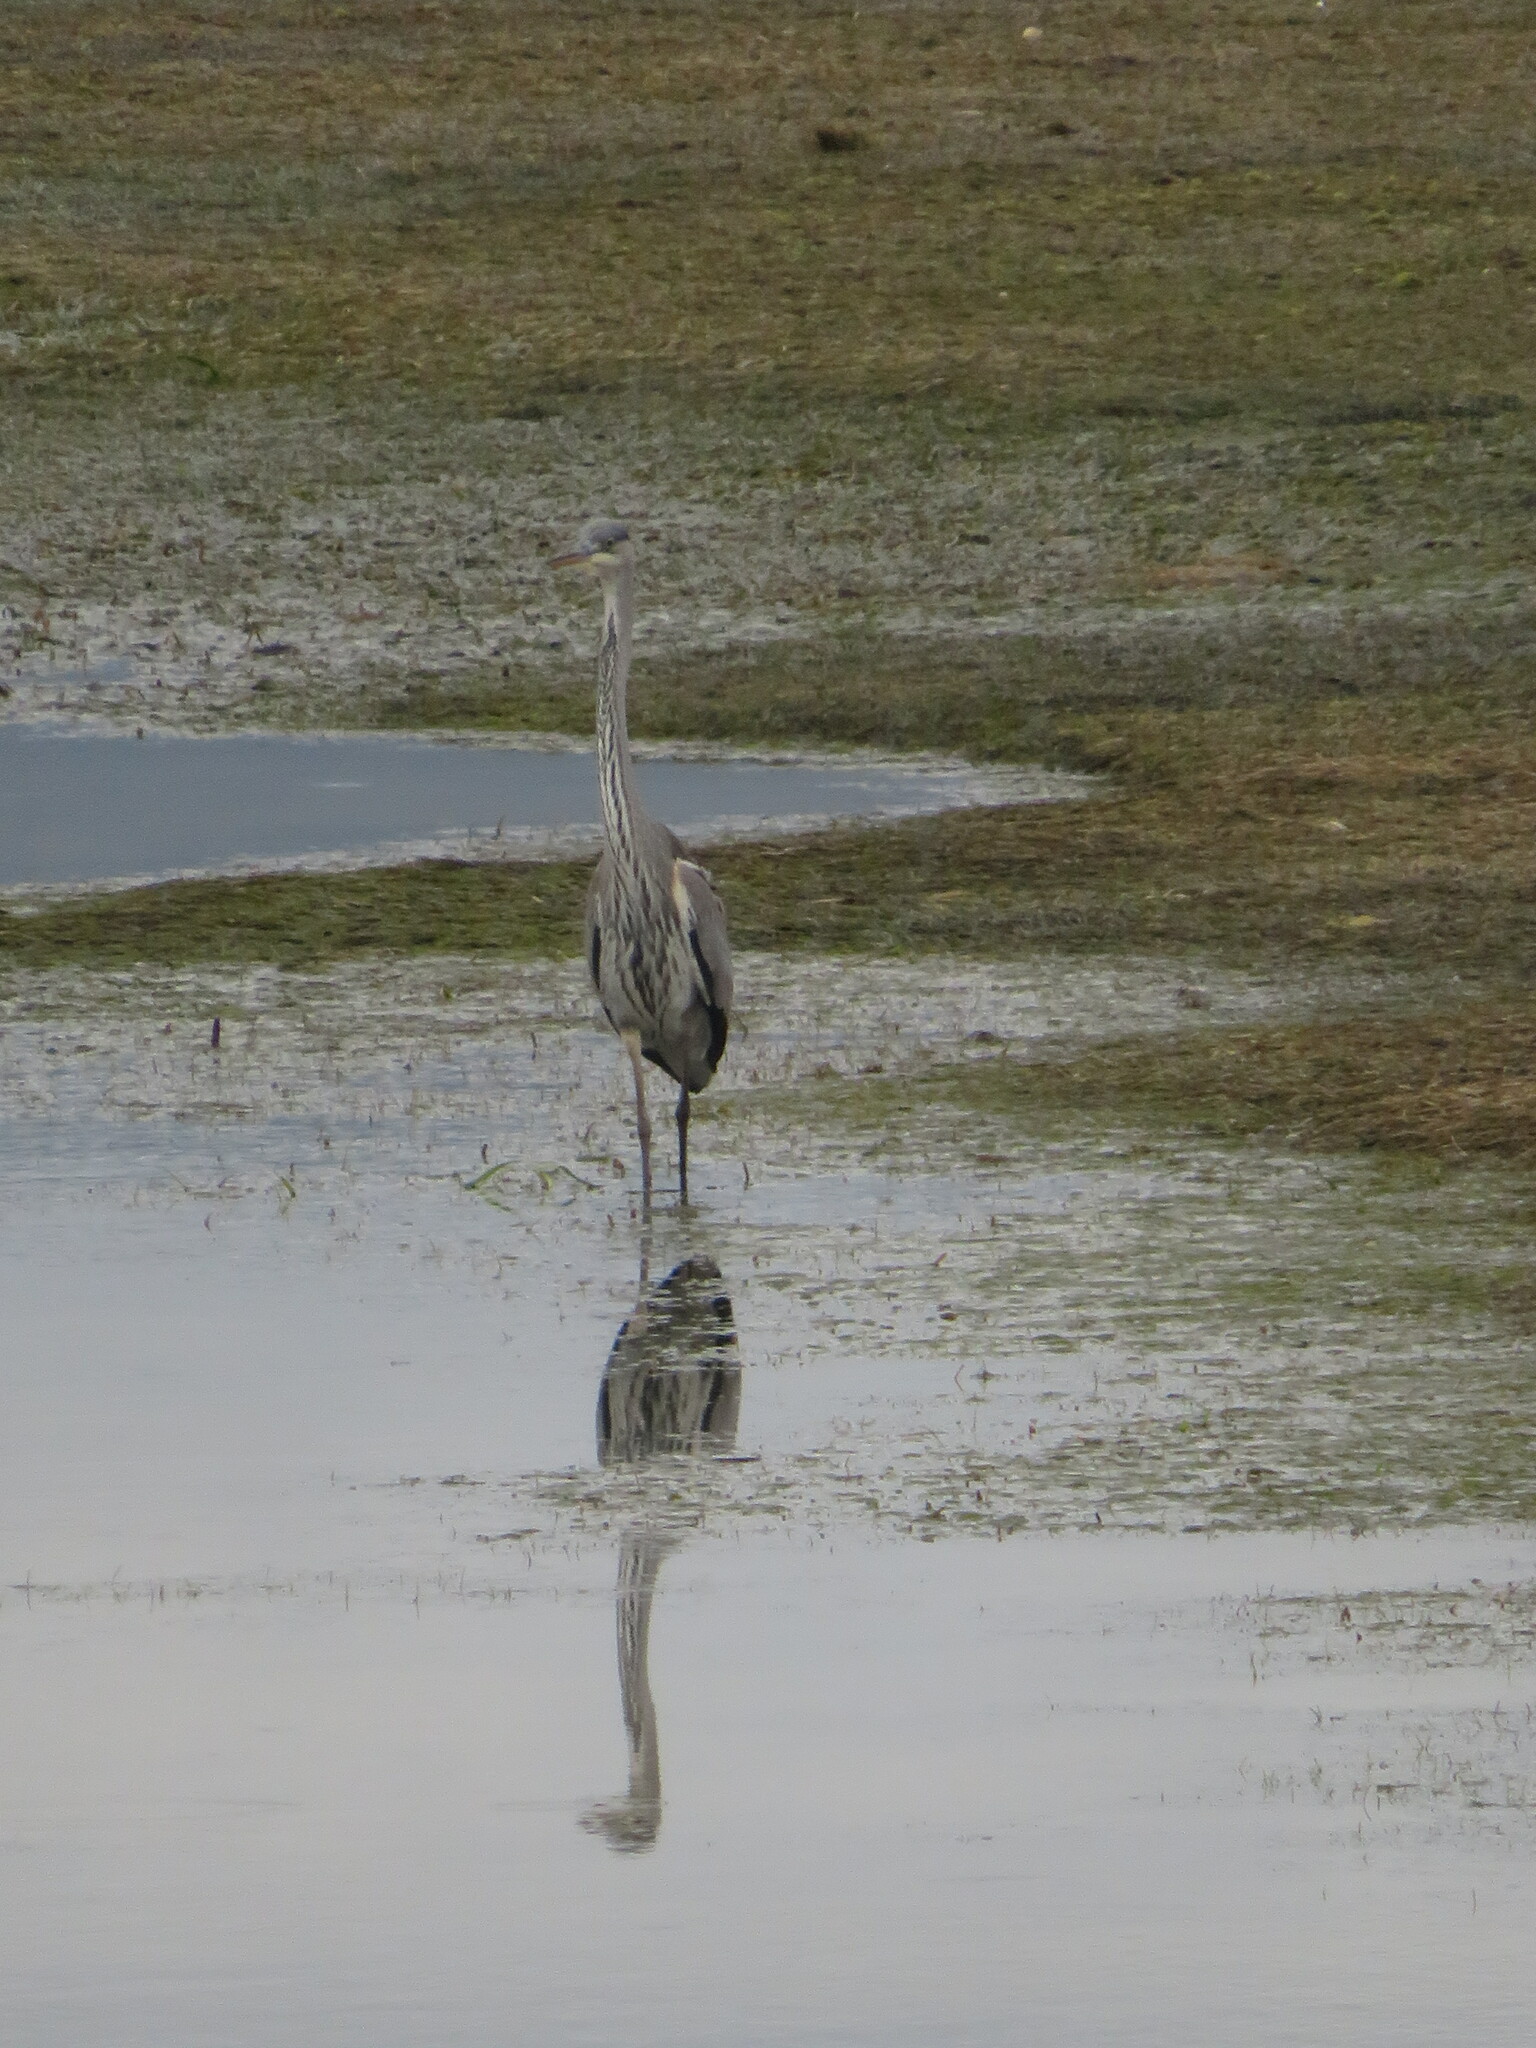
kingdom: Animalia
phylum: Chordata
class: Aves
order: Pelecaniformes
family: Ardeidae
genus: Ardea
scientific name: Ardea cinerea
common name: Grey heron
